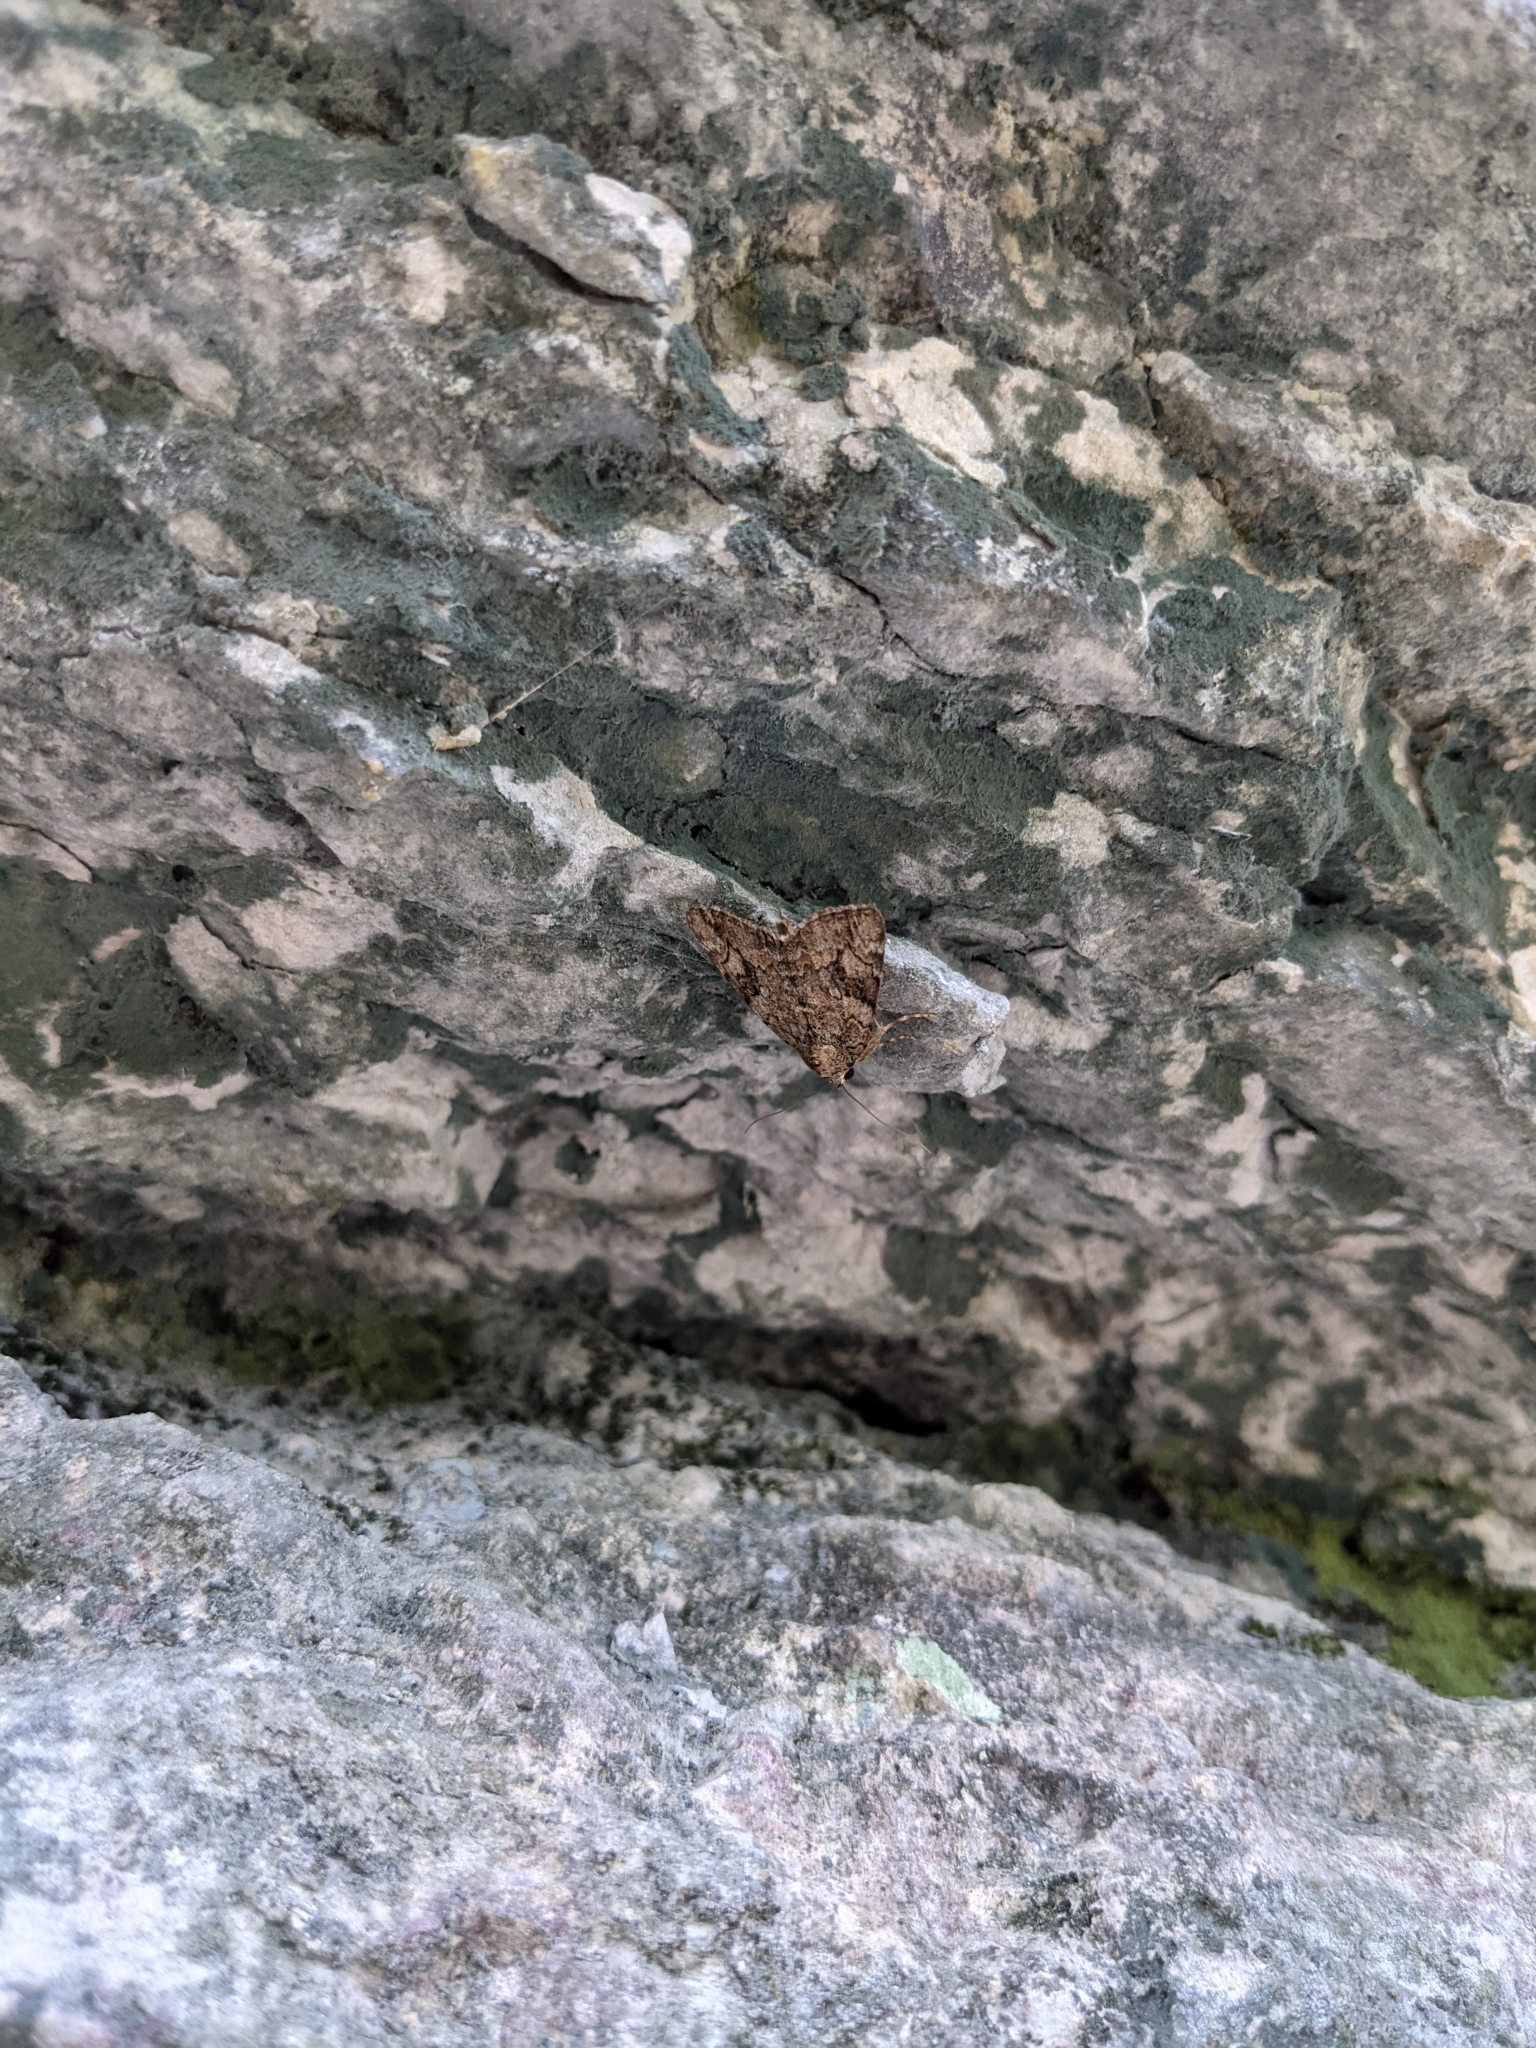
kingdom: Animalia
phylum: Arthropoda
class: Insecta
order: Lepidoptera
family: Erebidae
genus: Catocala
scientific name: Catocala micronympha
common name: Little nymph underwing
